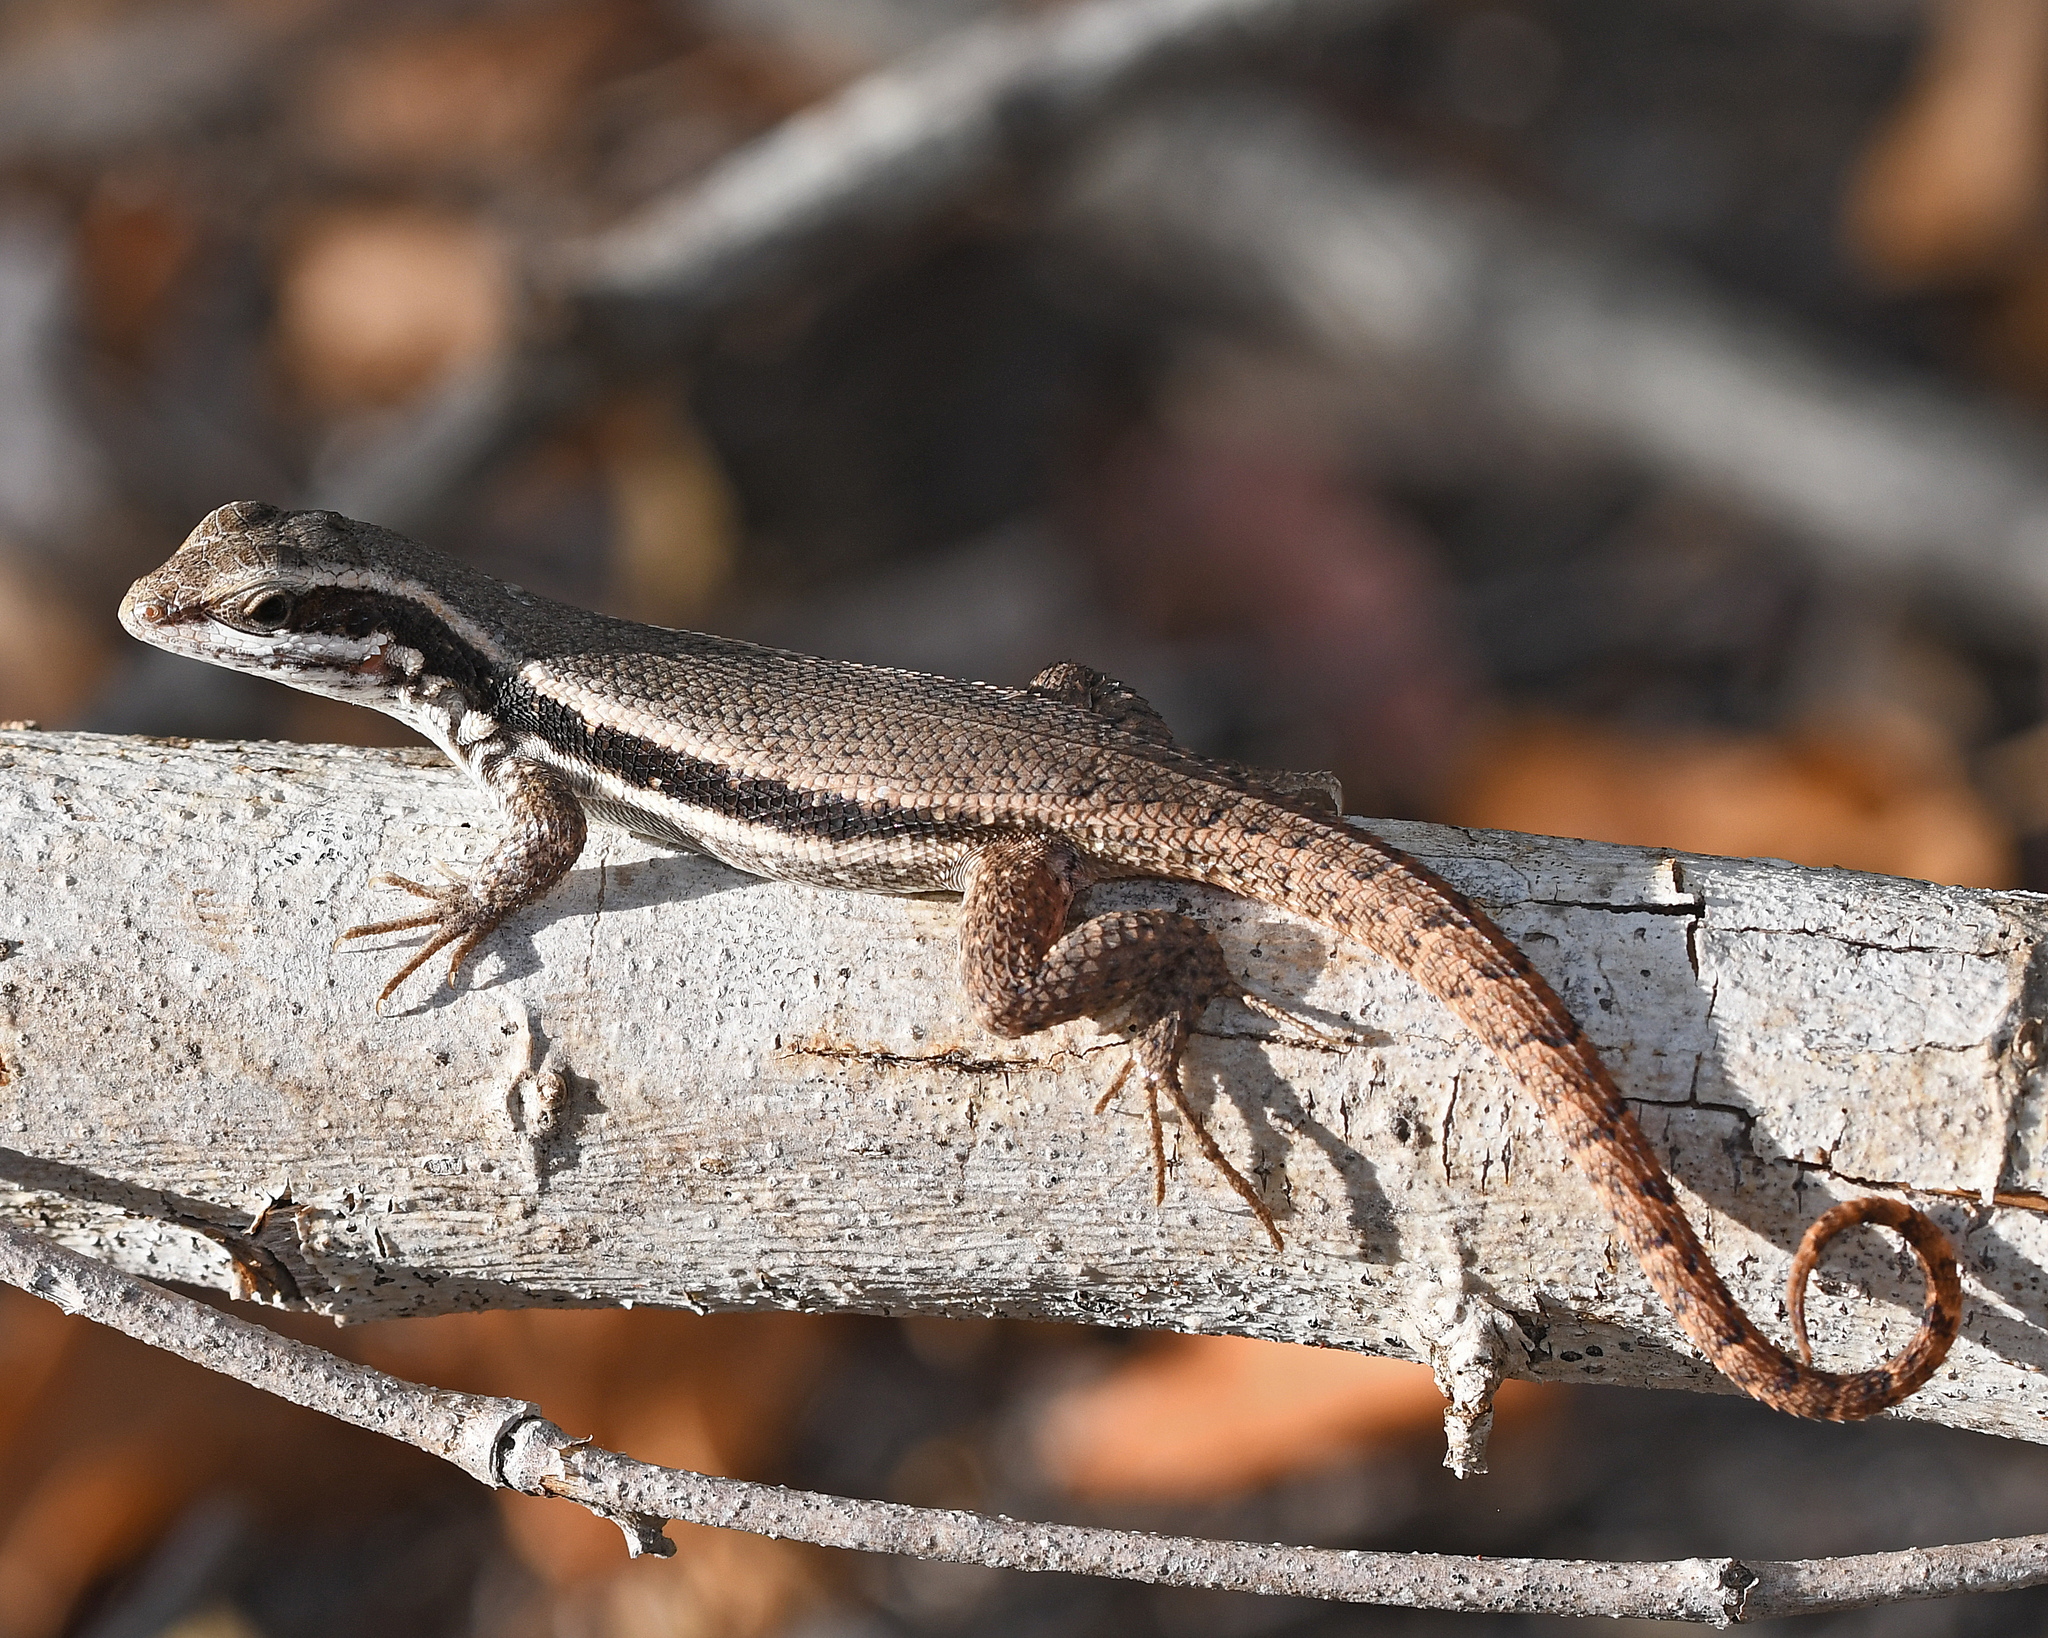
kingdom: Animalia
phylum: Chordata
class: Squamata
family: Leiocephalidae
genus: Leiocephalus
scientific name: Leiocephalus semilineatus
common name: Pale-bellied hispaniolan curlytail
